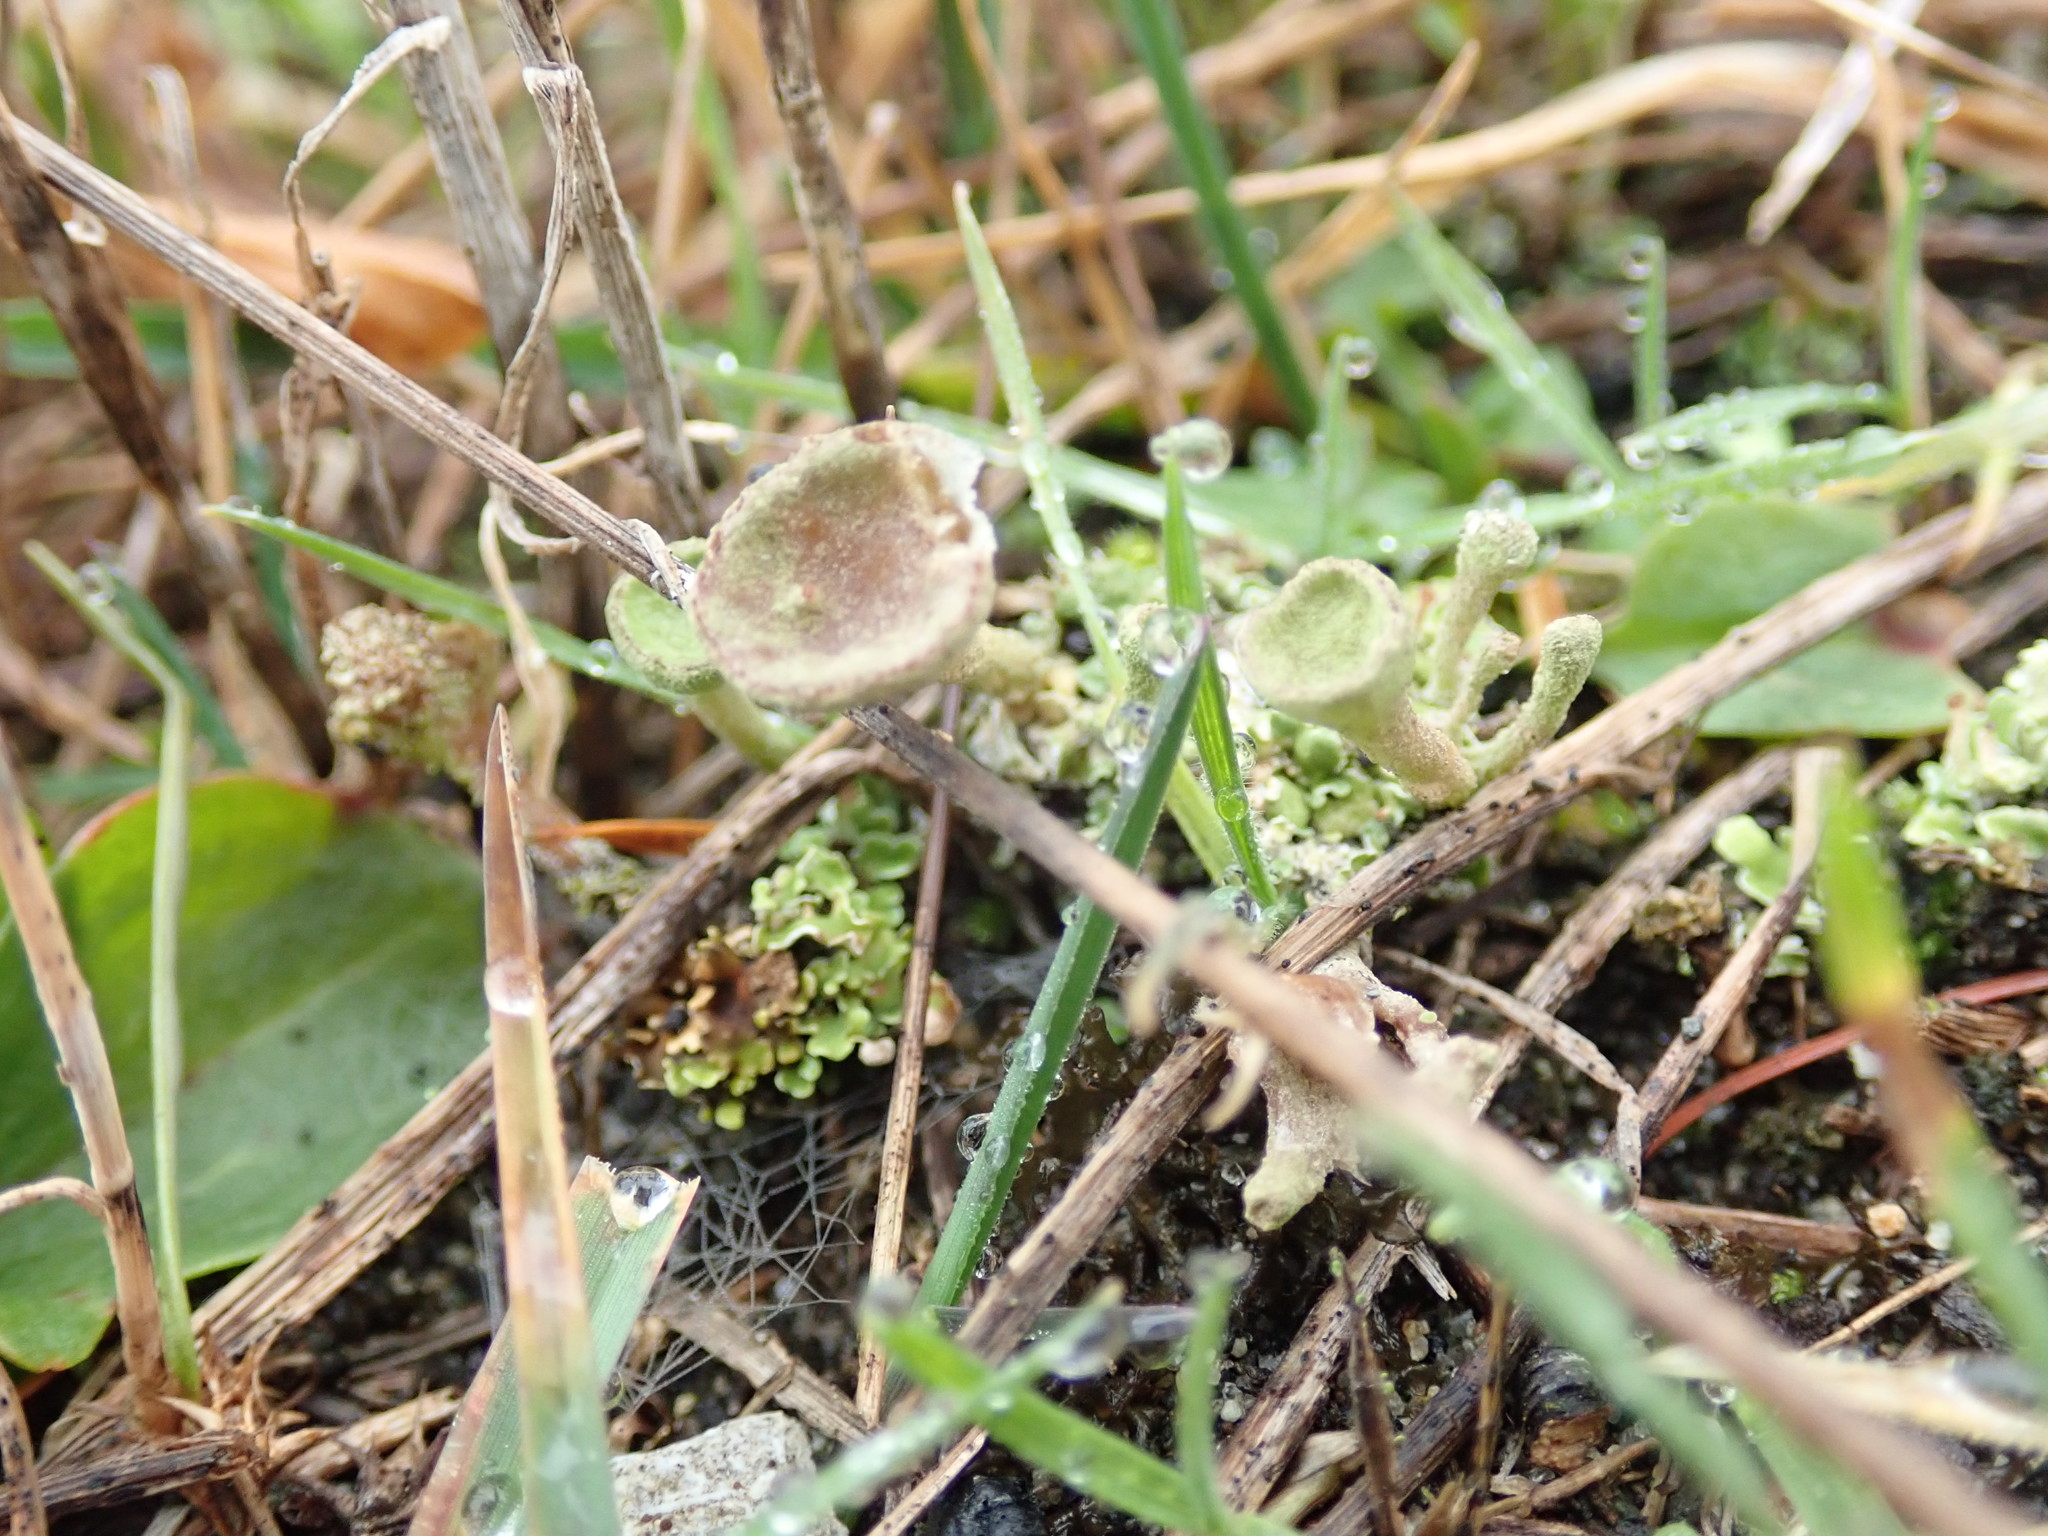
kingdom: Fungi
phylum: Ascomycota
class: Lecanoromycetes
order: Lecanorales
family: Cladoniaceae
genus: Cladonia
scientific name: Cladonia fimbriata
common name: Powdered trumpet lichen
